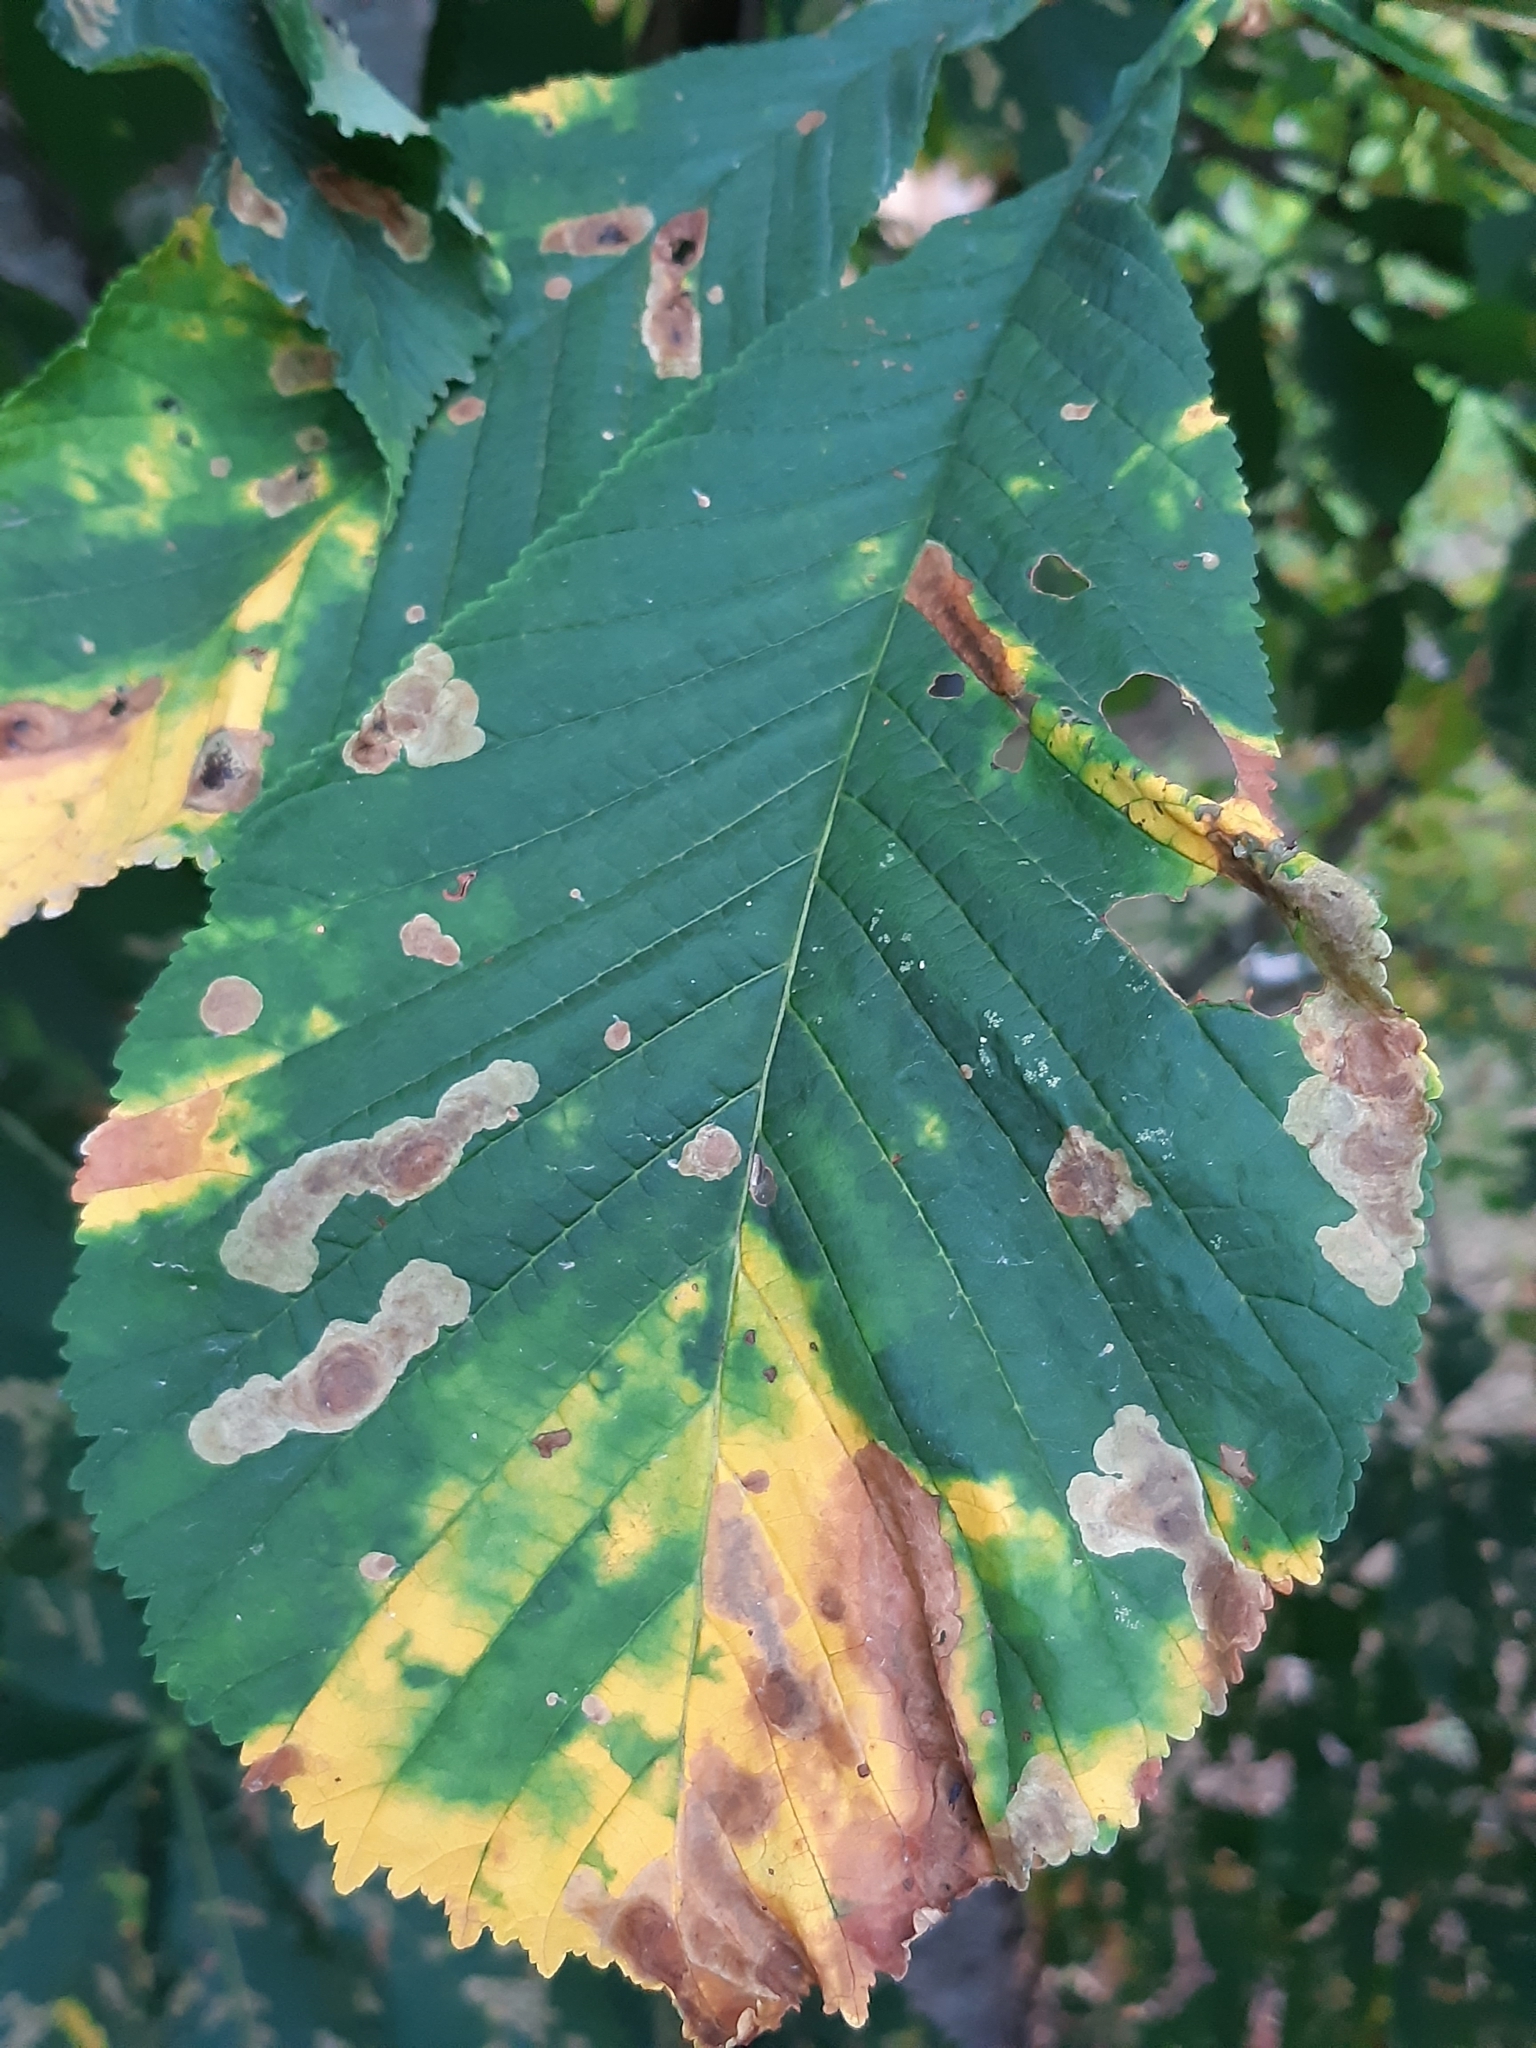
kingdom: Animalia
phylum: Arthropoda
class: Insecta
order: Lepidoptera
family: Gracillariidae
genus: Cameraria
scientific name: Cameraria ohridella
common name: Horse-chestnut leaf-miner
